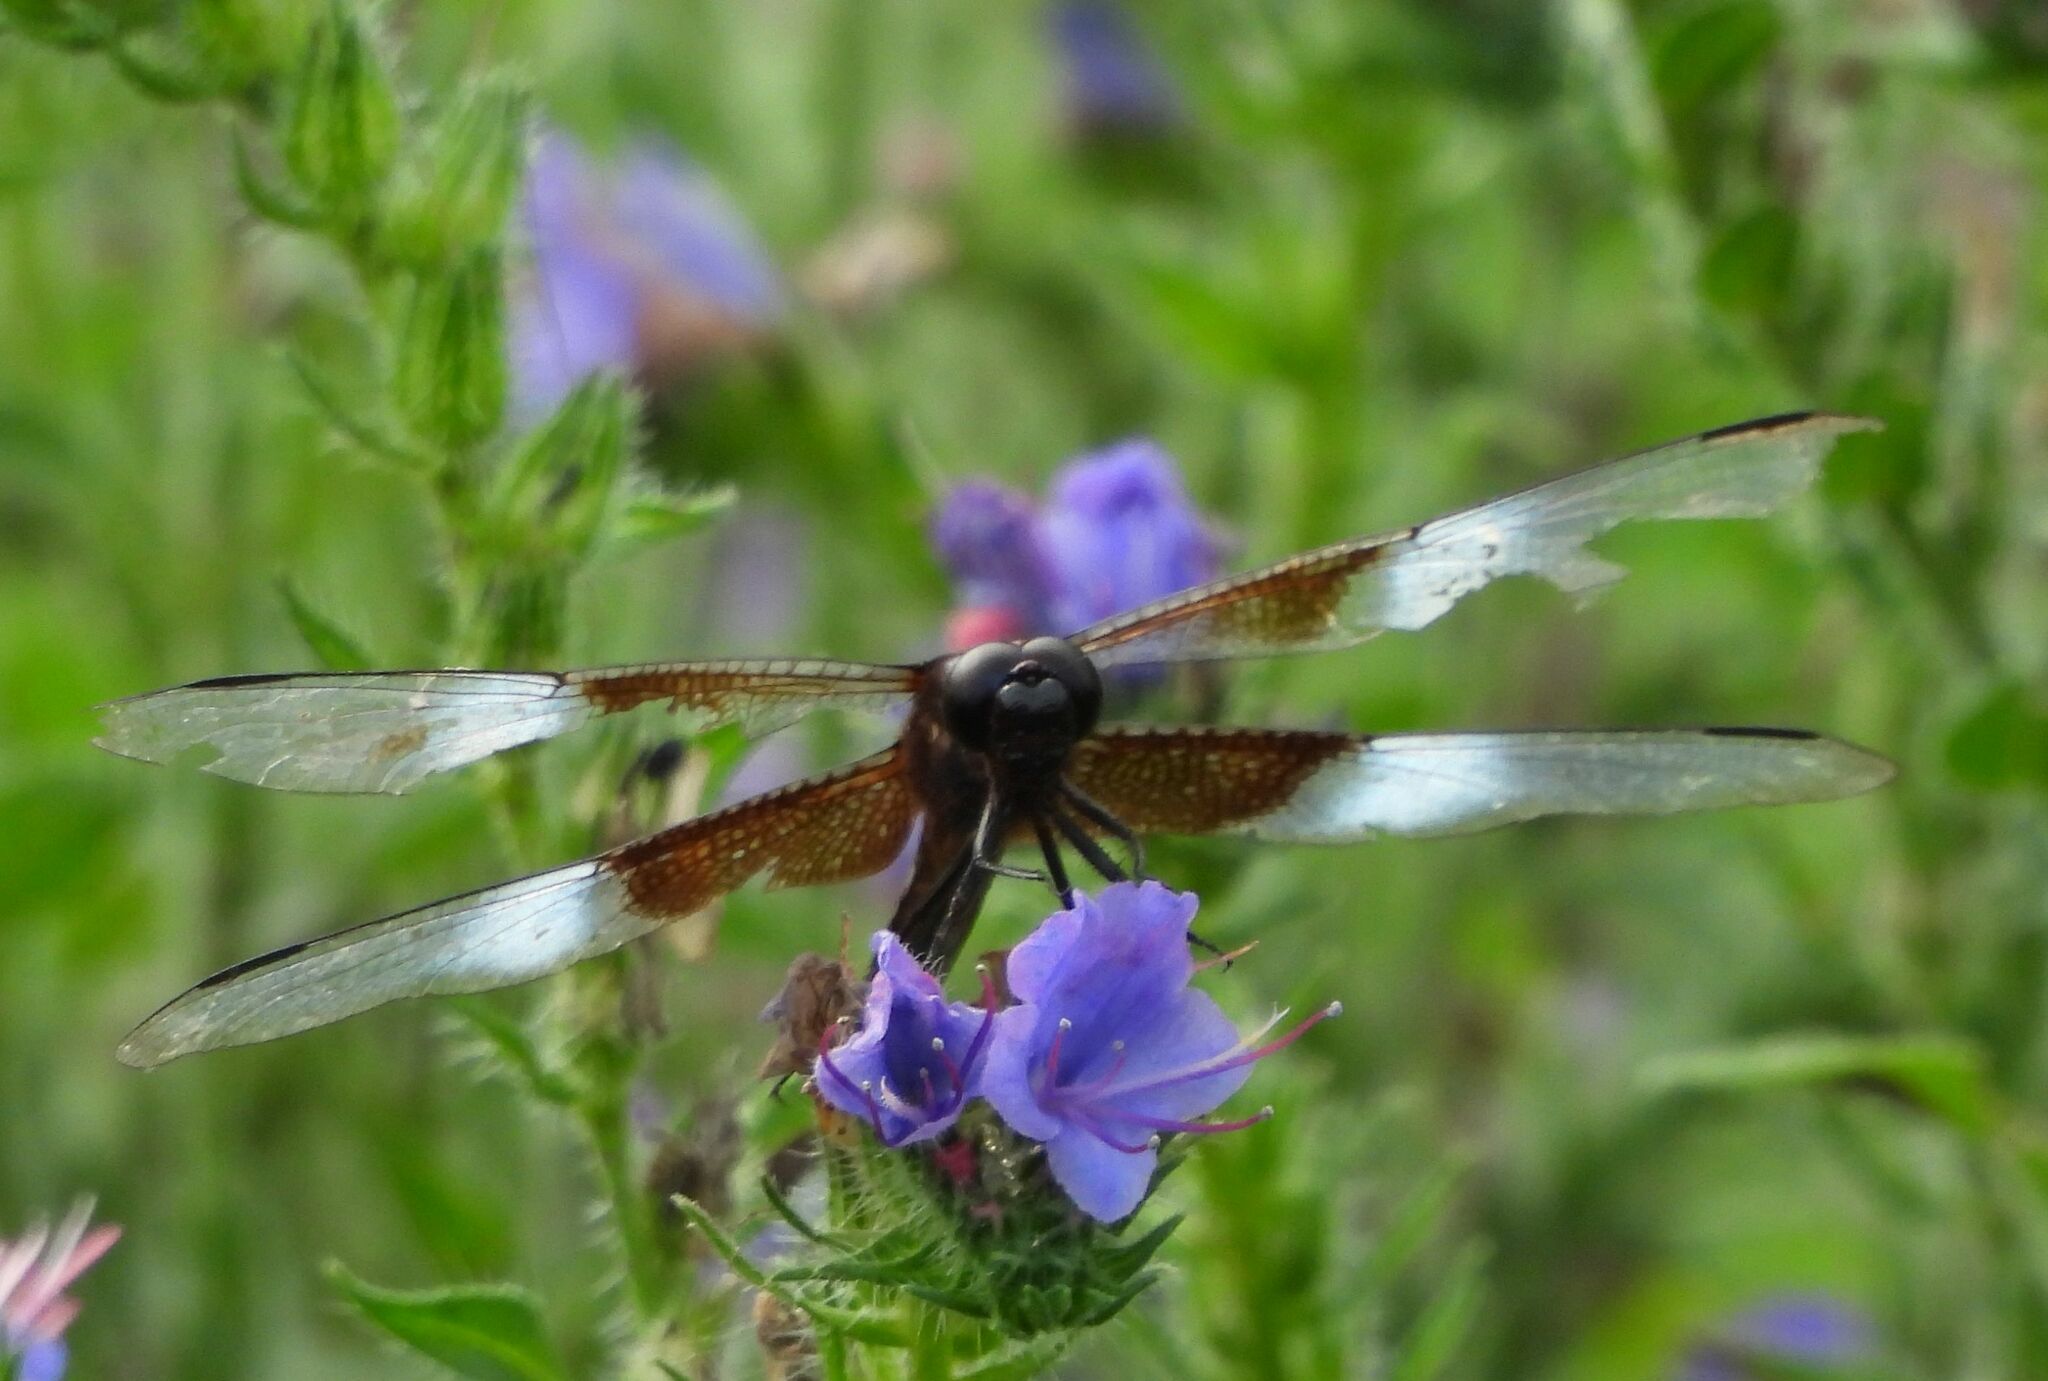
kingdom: Animalia
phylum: Arthropoda
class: Insecta
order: Odonata
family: Libellulidae
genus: Libellula
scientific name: Libellula luctuosa
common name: Widow skimmer
